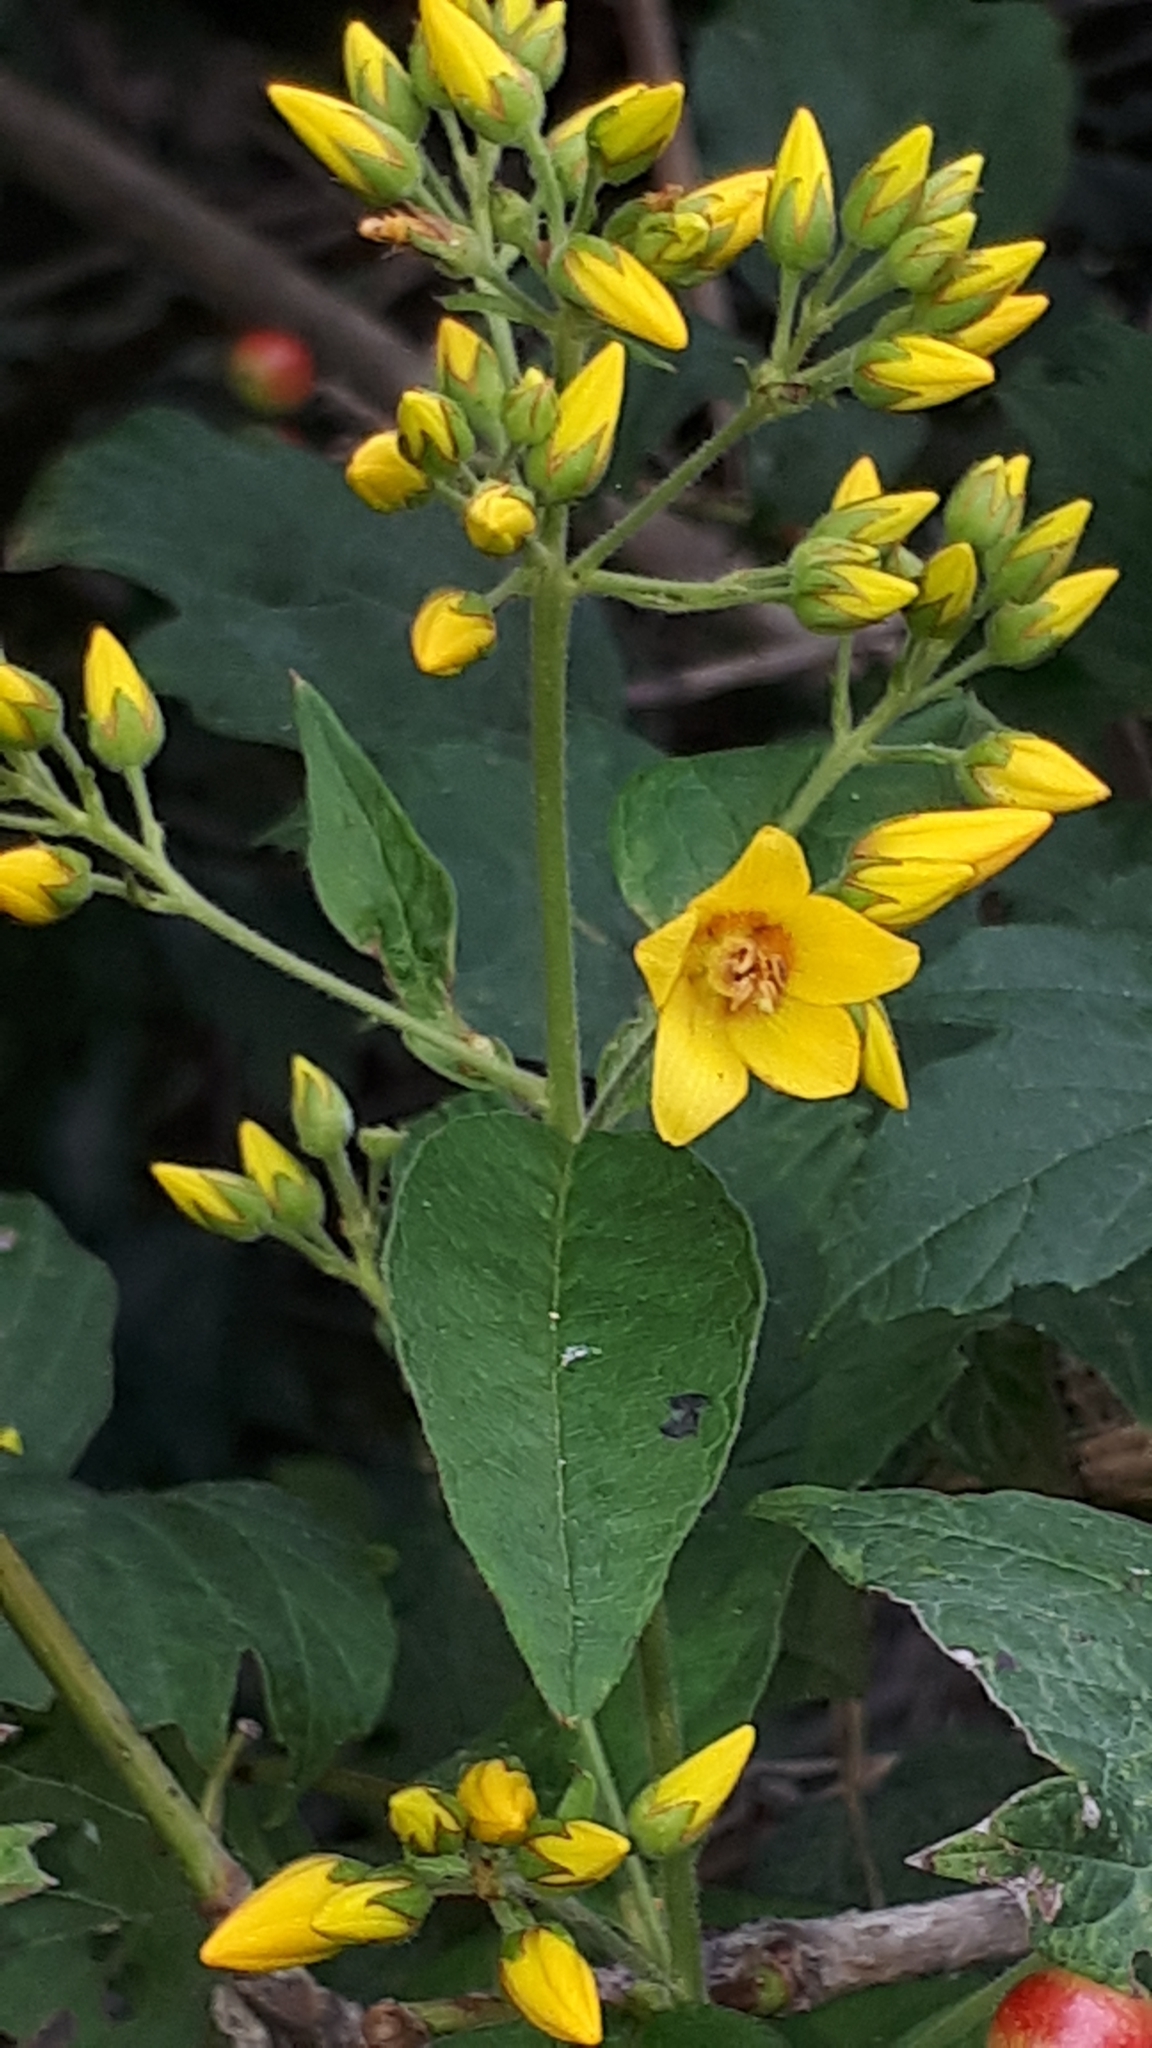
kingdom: Plantae
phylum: Tracheophyta
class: Magnoliopsida
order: Ericales
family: Primulaceae
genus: Lysimachia
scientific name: Lysimachia vulgaris
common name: Yellow loosestrife
